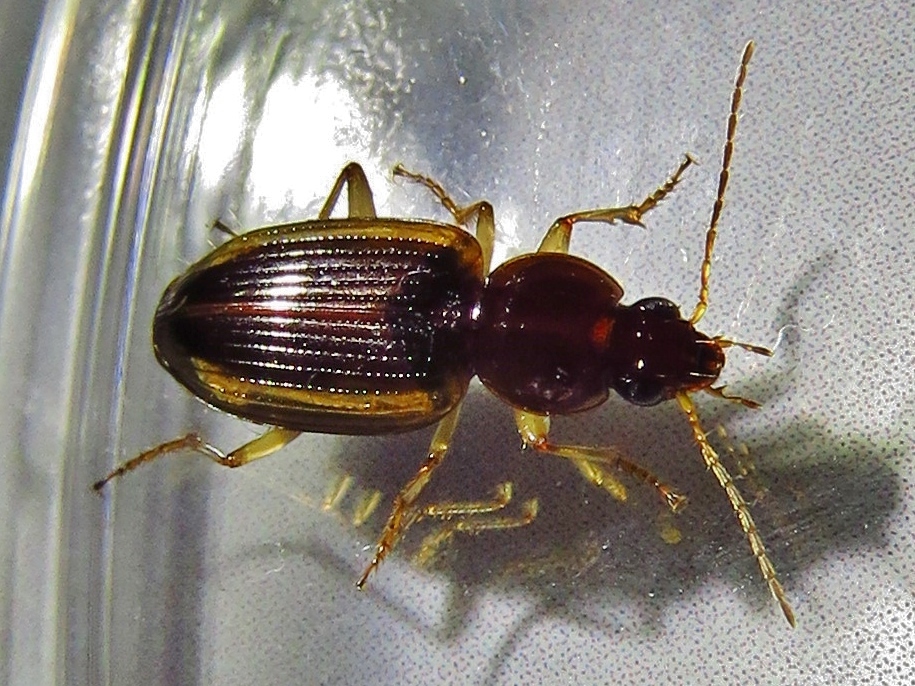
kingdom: Animalia
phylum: Arthropoda
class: Insecta
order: Coleoptera
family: Carabidae
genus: Agonum
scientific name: Agonum pallipes
